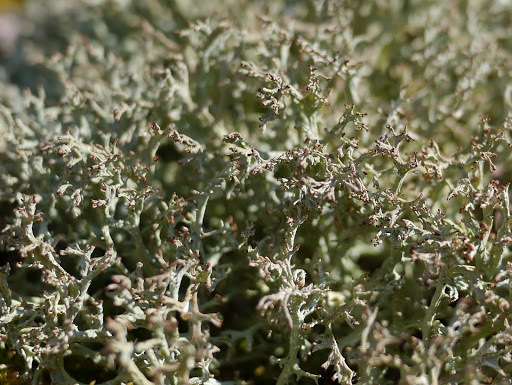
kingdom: Fungi
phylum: Ascomycota
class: Lecanoromycetes
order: Lecanorales
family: Cladoniaceae
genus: Cladonia
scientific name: Cladonia furcata
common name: Many-forked cladonia
